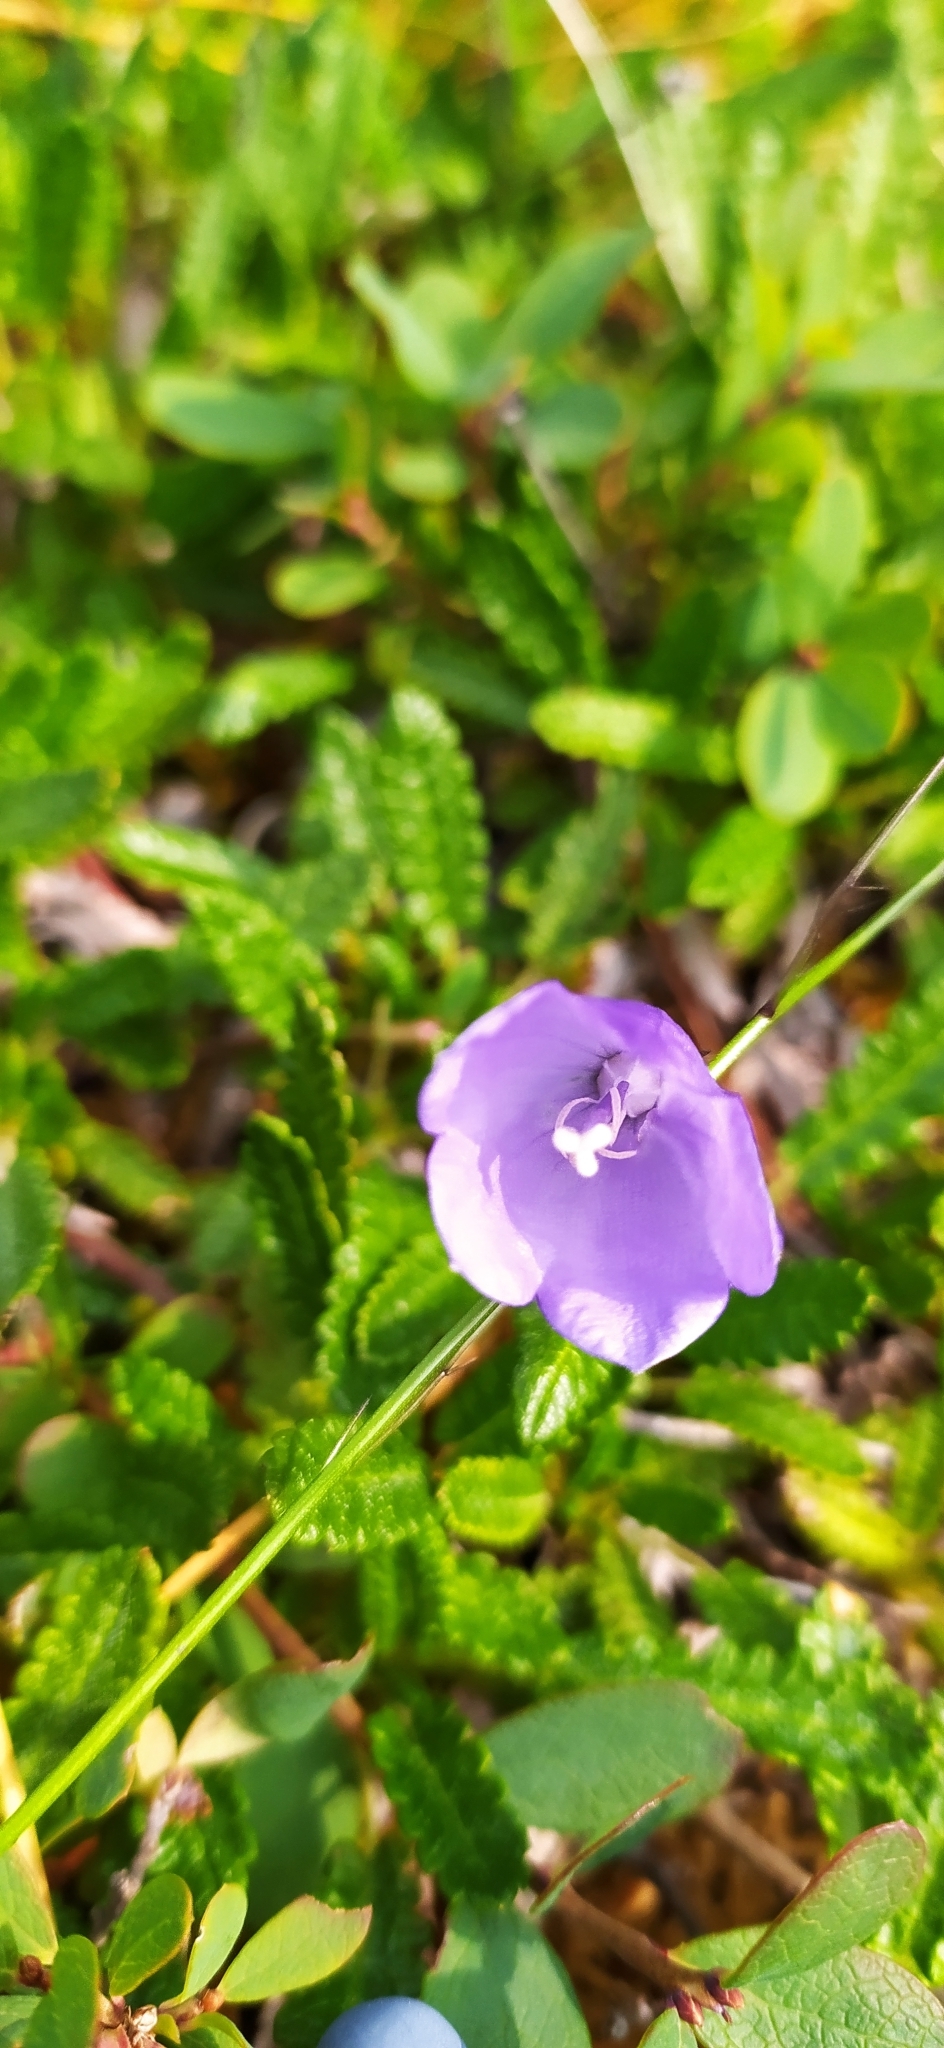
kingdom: Plantae
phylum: Tracheophyta
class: Magnoliopsida
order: Asterales
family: Campanulaceae
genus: Campanula
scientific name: Campanula rotundifolia
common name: Harebell
